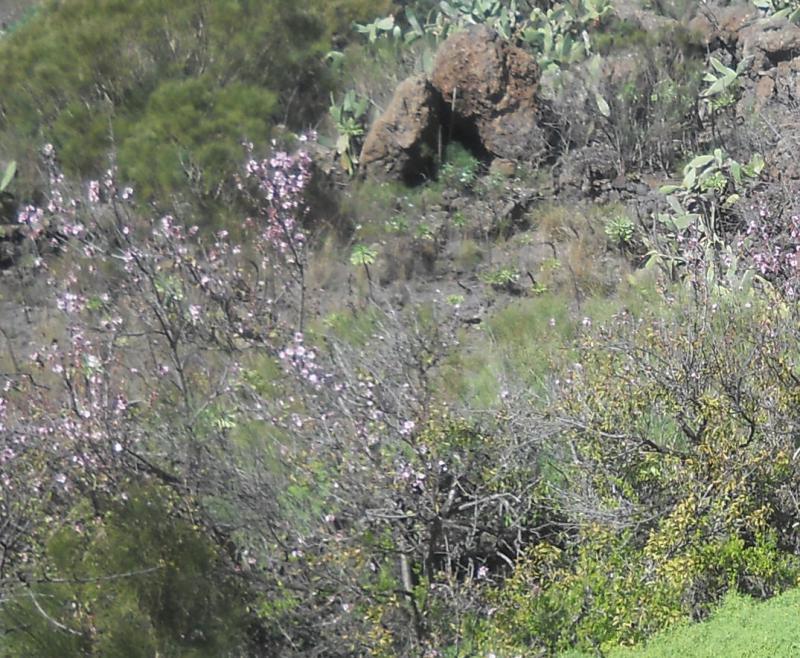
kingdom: Plantae
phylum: Tracheophyta
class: Magnoliopsida
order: Rosales
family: Rosaceae
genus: Prunus
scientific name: Prunus amygdalus
